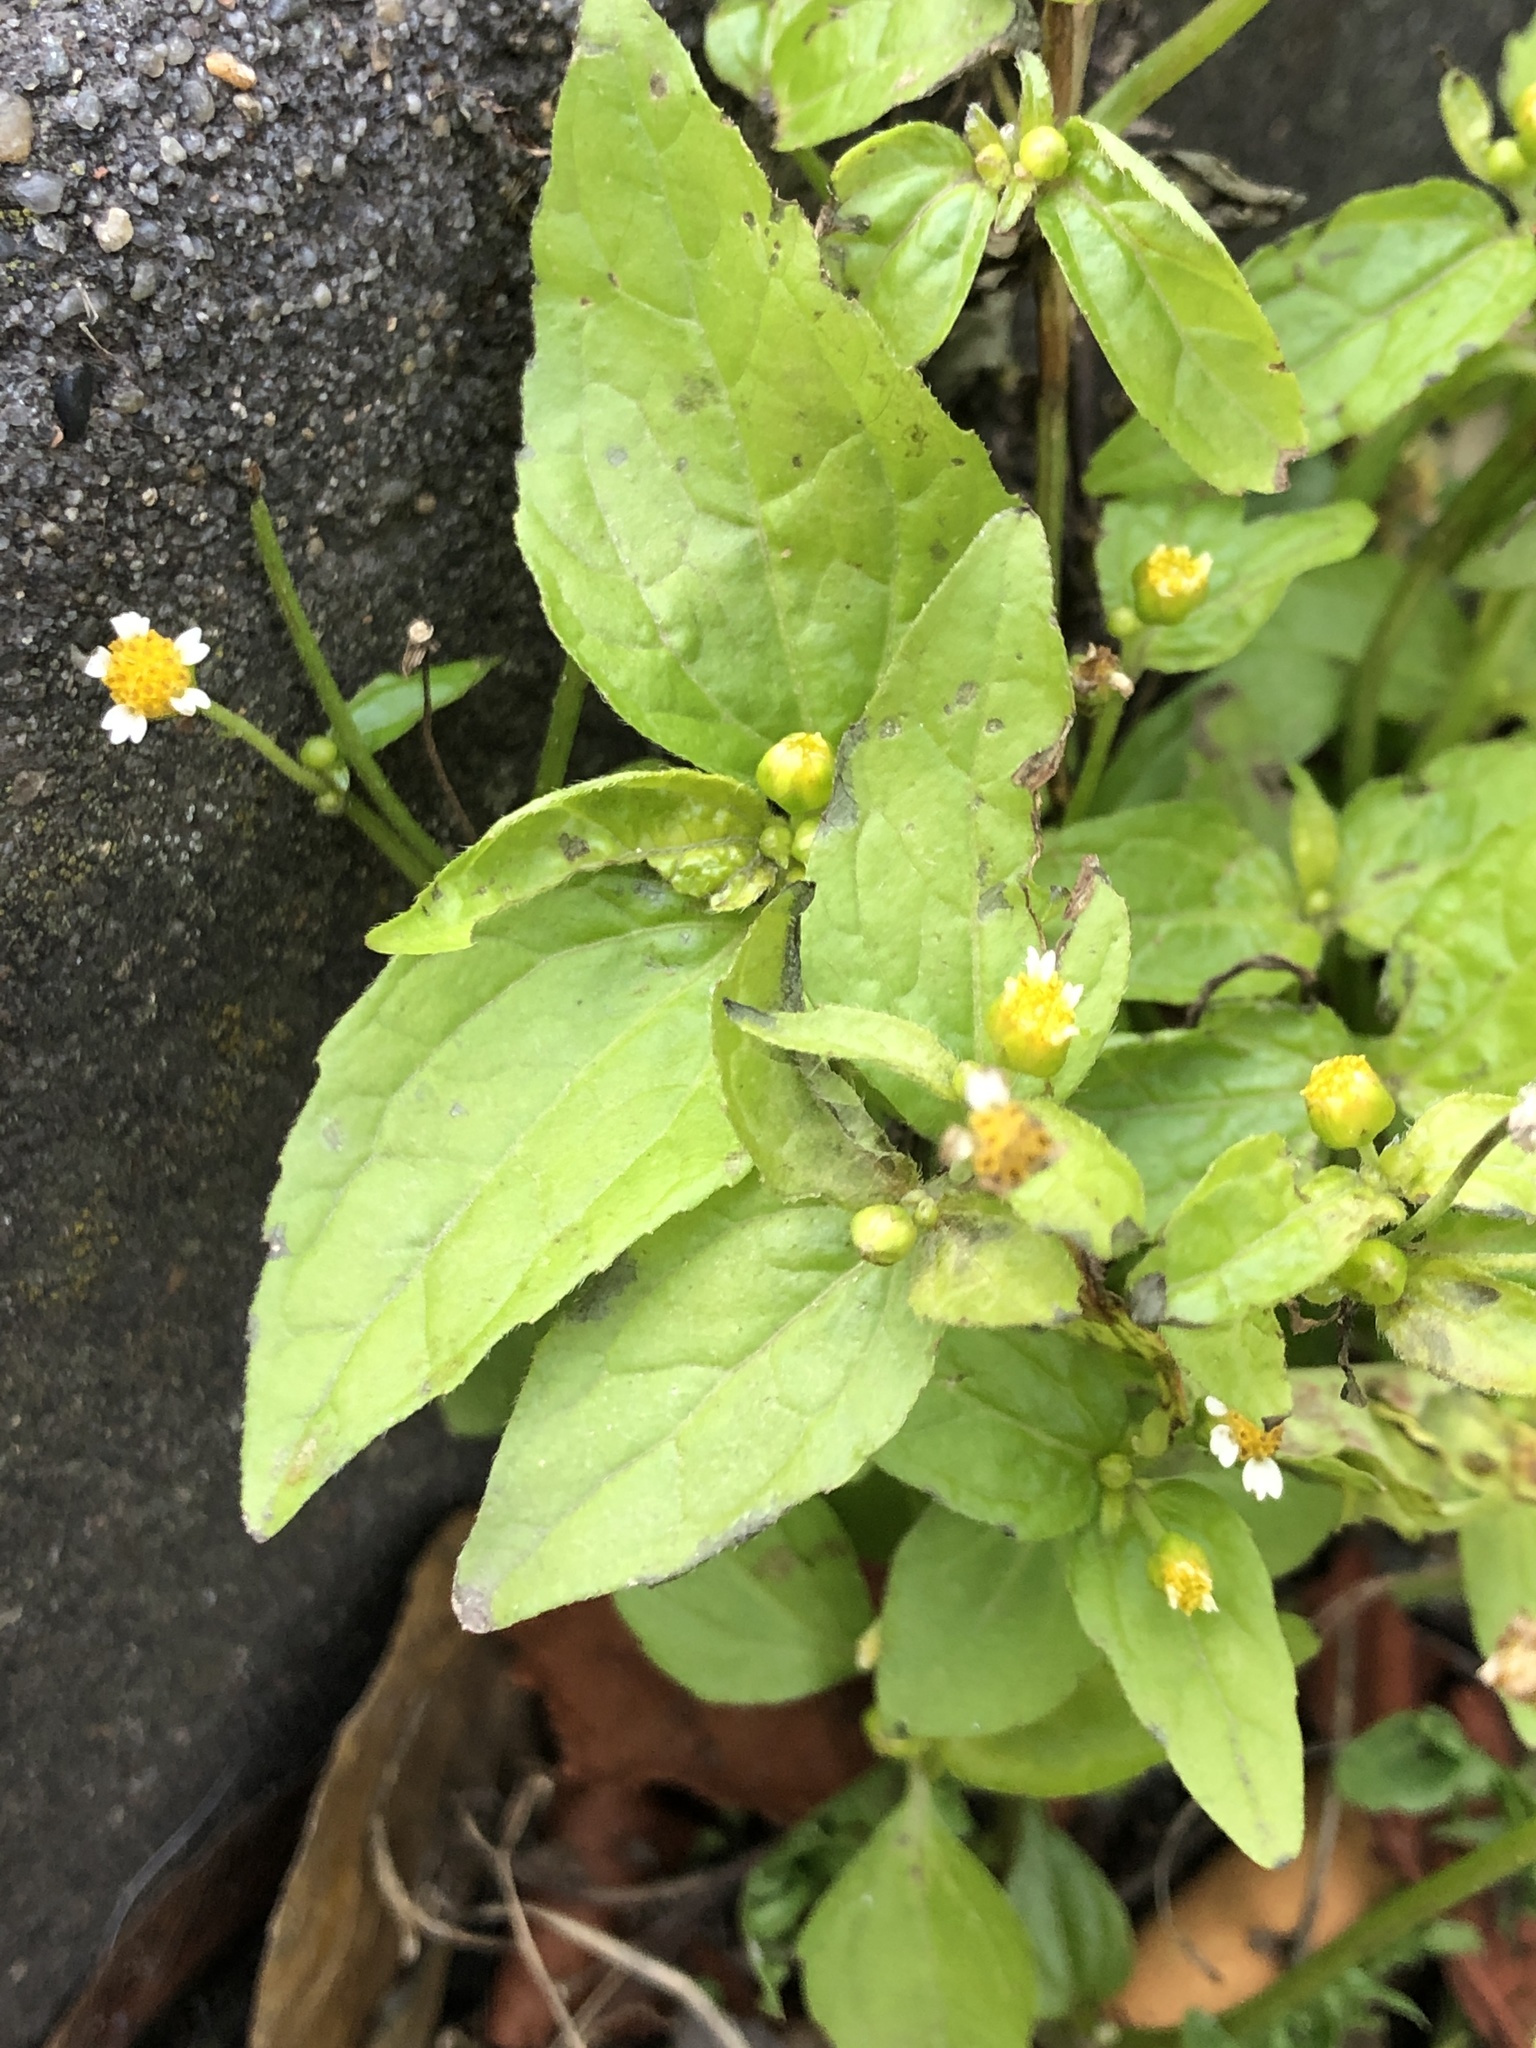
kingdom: Plantae
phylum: Tracheophyta
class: Magnoliopsida
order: Asterales
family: Asteraceae
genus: Galinsoga
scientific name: Galinsoga parviflora
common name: Gallant soldier
